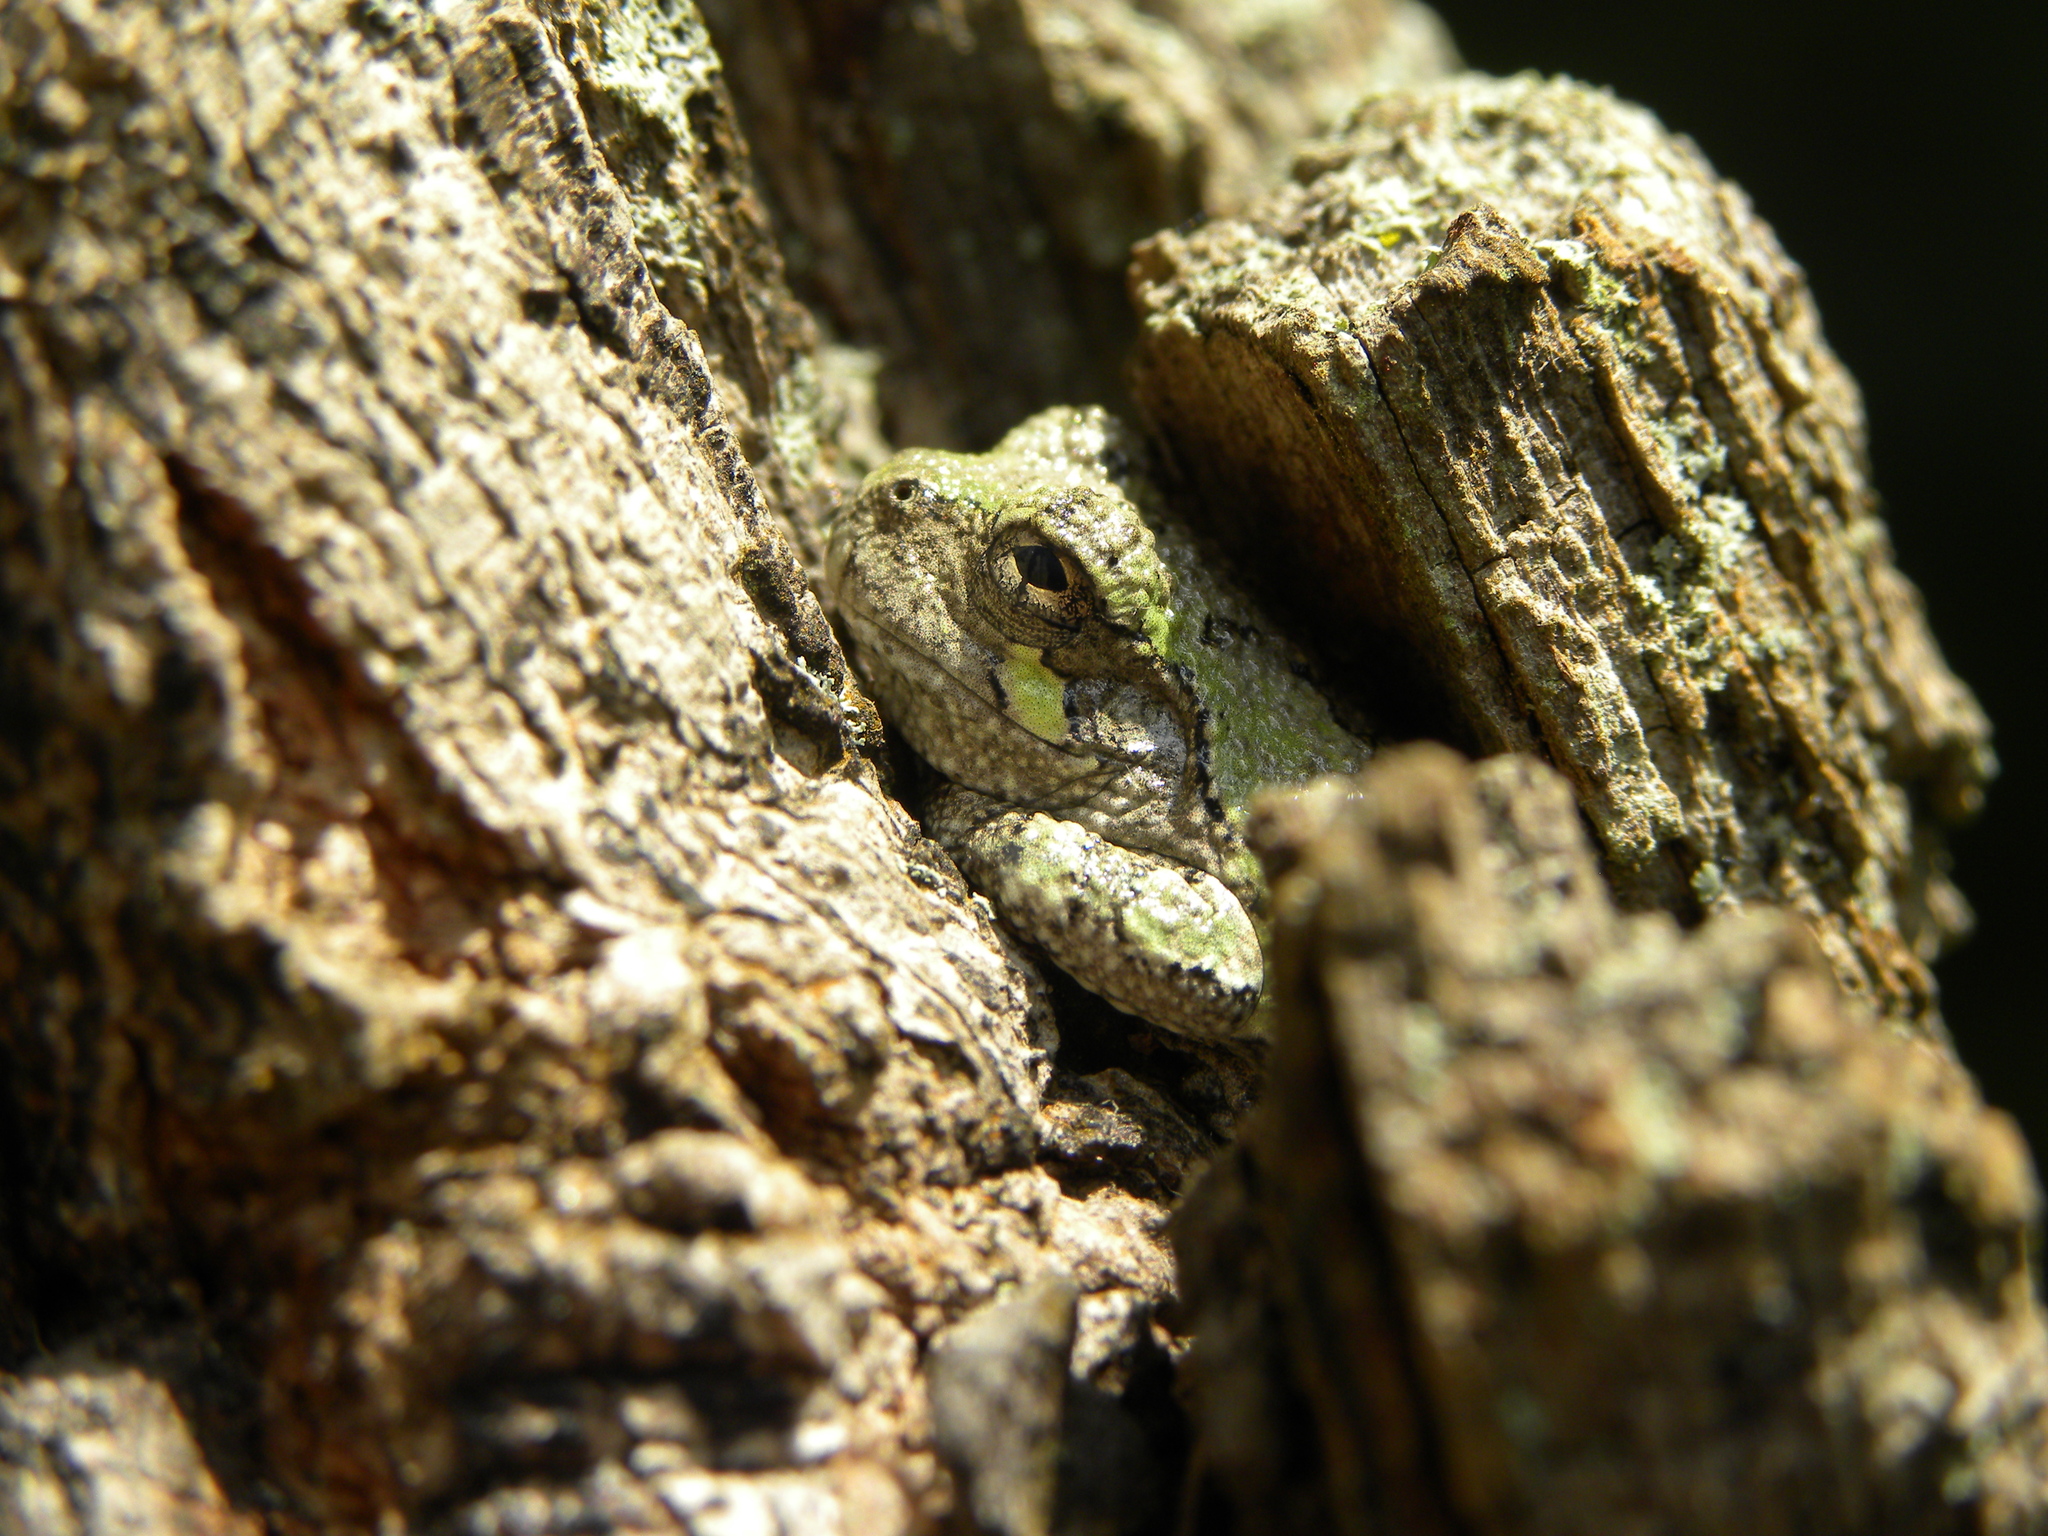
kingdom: Animalia
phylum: Chordata
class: Amphibia
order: Anura
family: Hylidae
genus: Dryophytes
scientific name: Dryophytes chrysoscelis
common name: Cope's gray treefrog
